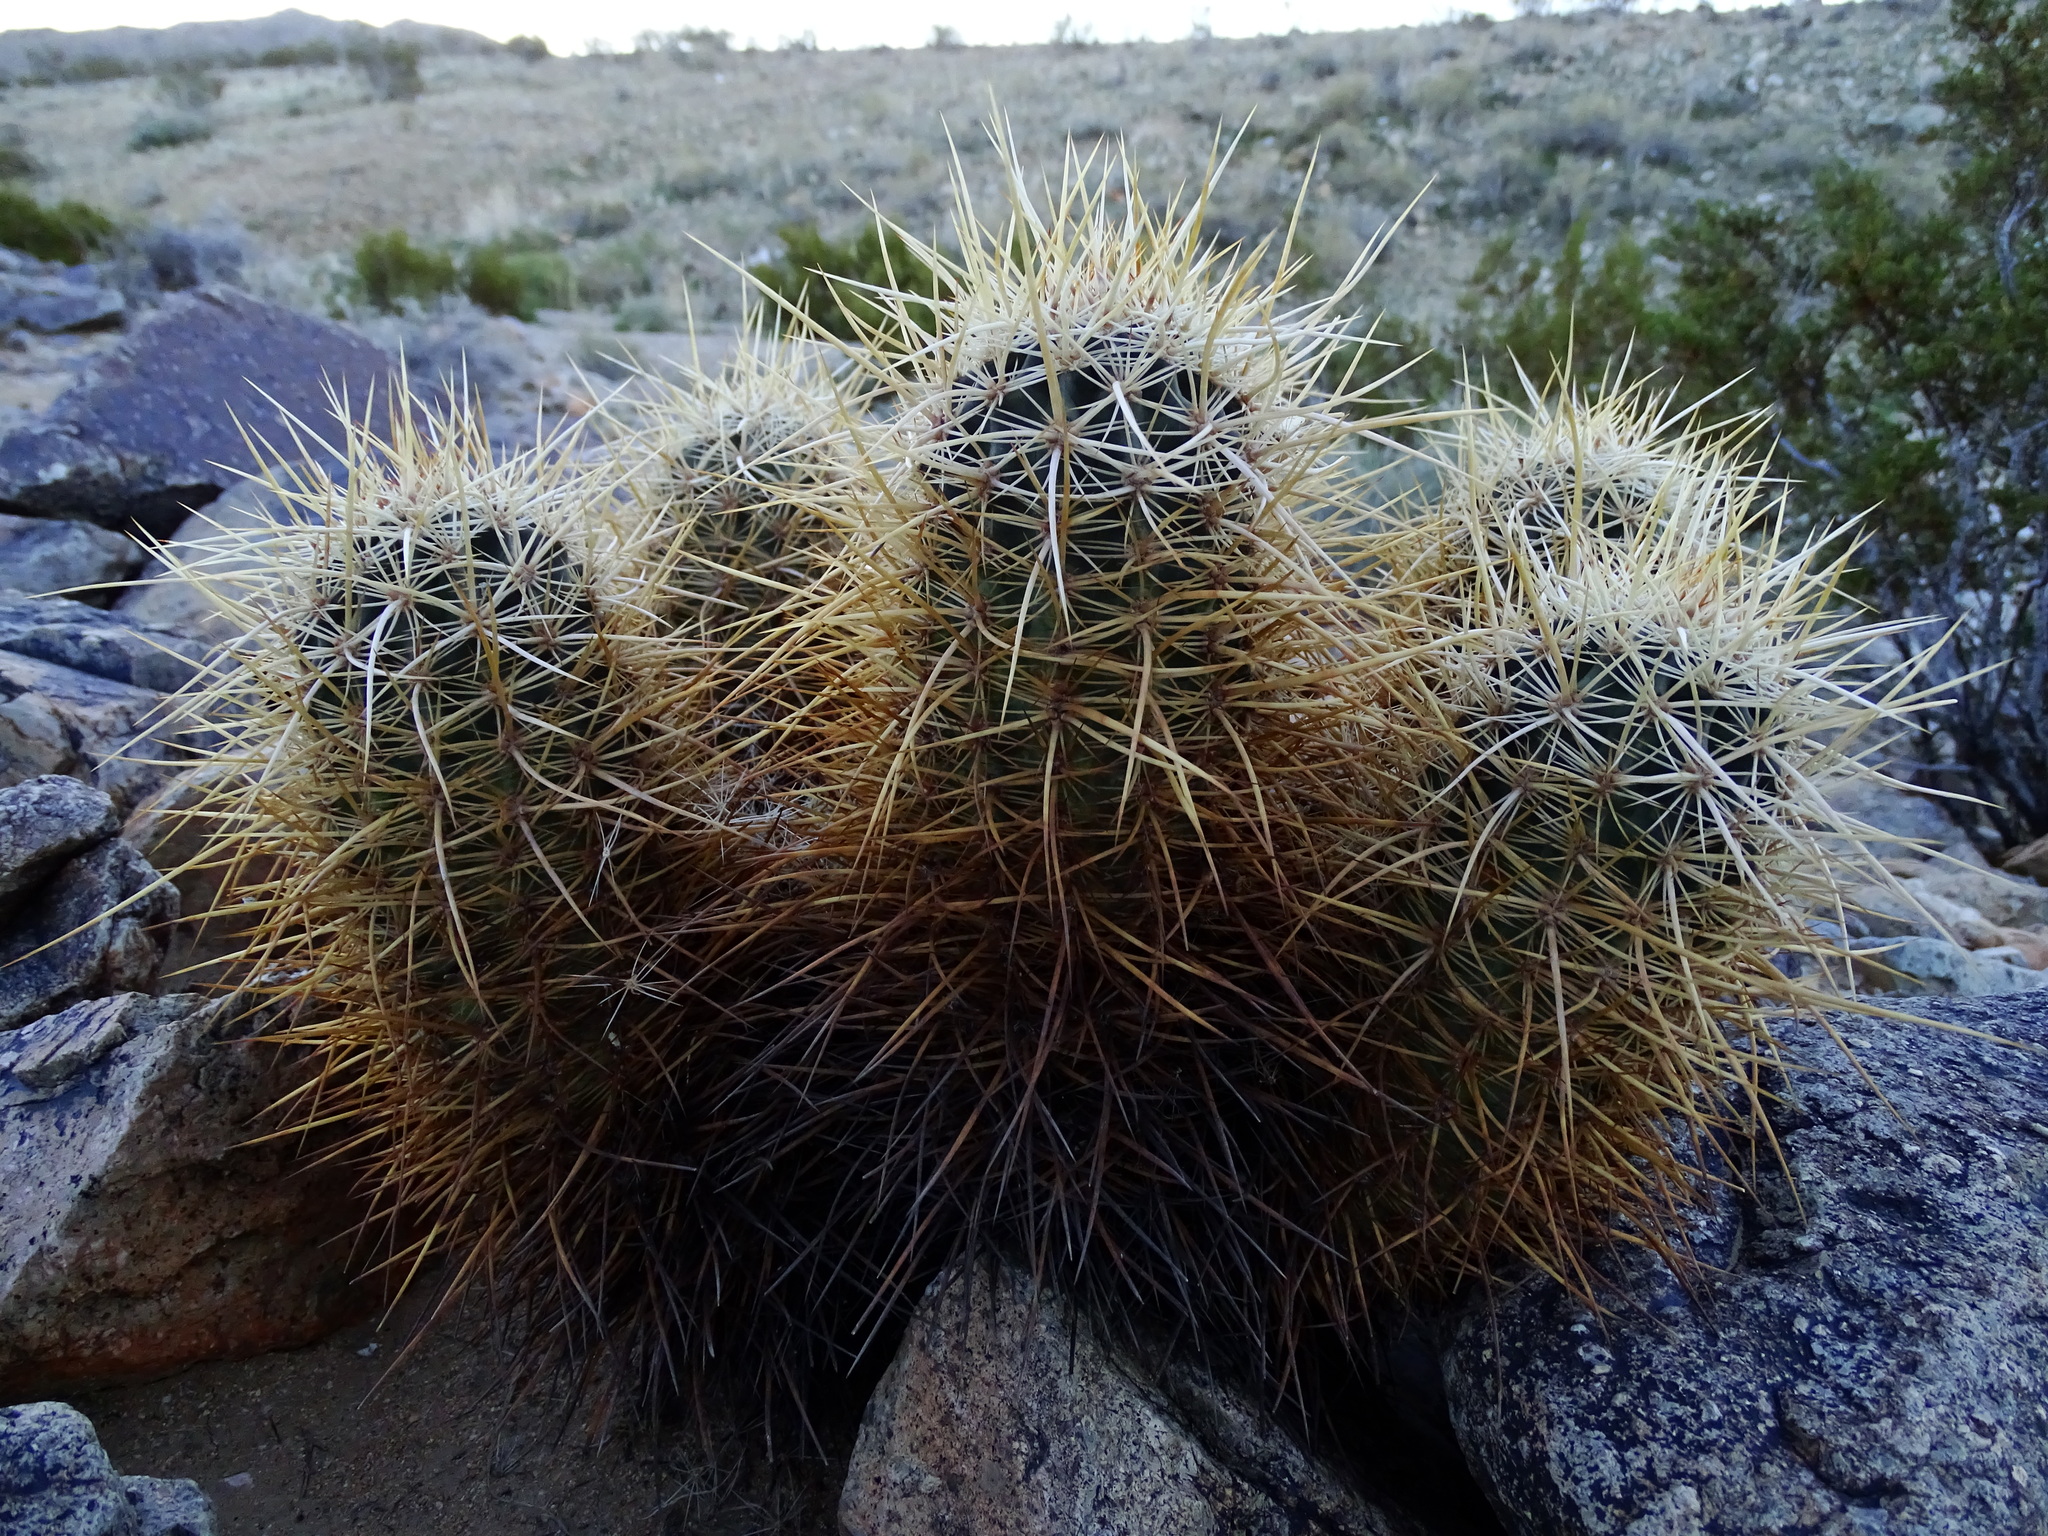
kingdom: Plantae
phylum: Tracheophyta
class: Magnoliopsida
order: Caryophyllales
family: Cactaceae
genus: Echinocereus
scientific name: Echinocereus engelmannii
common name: Engelmann's hedgehog cactus
